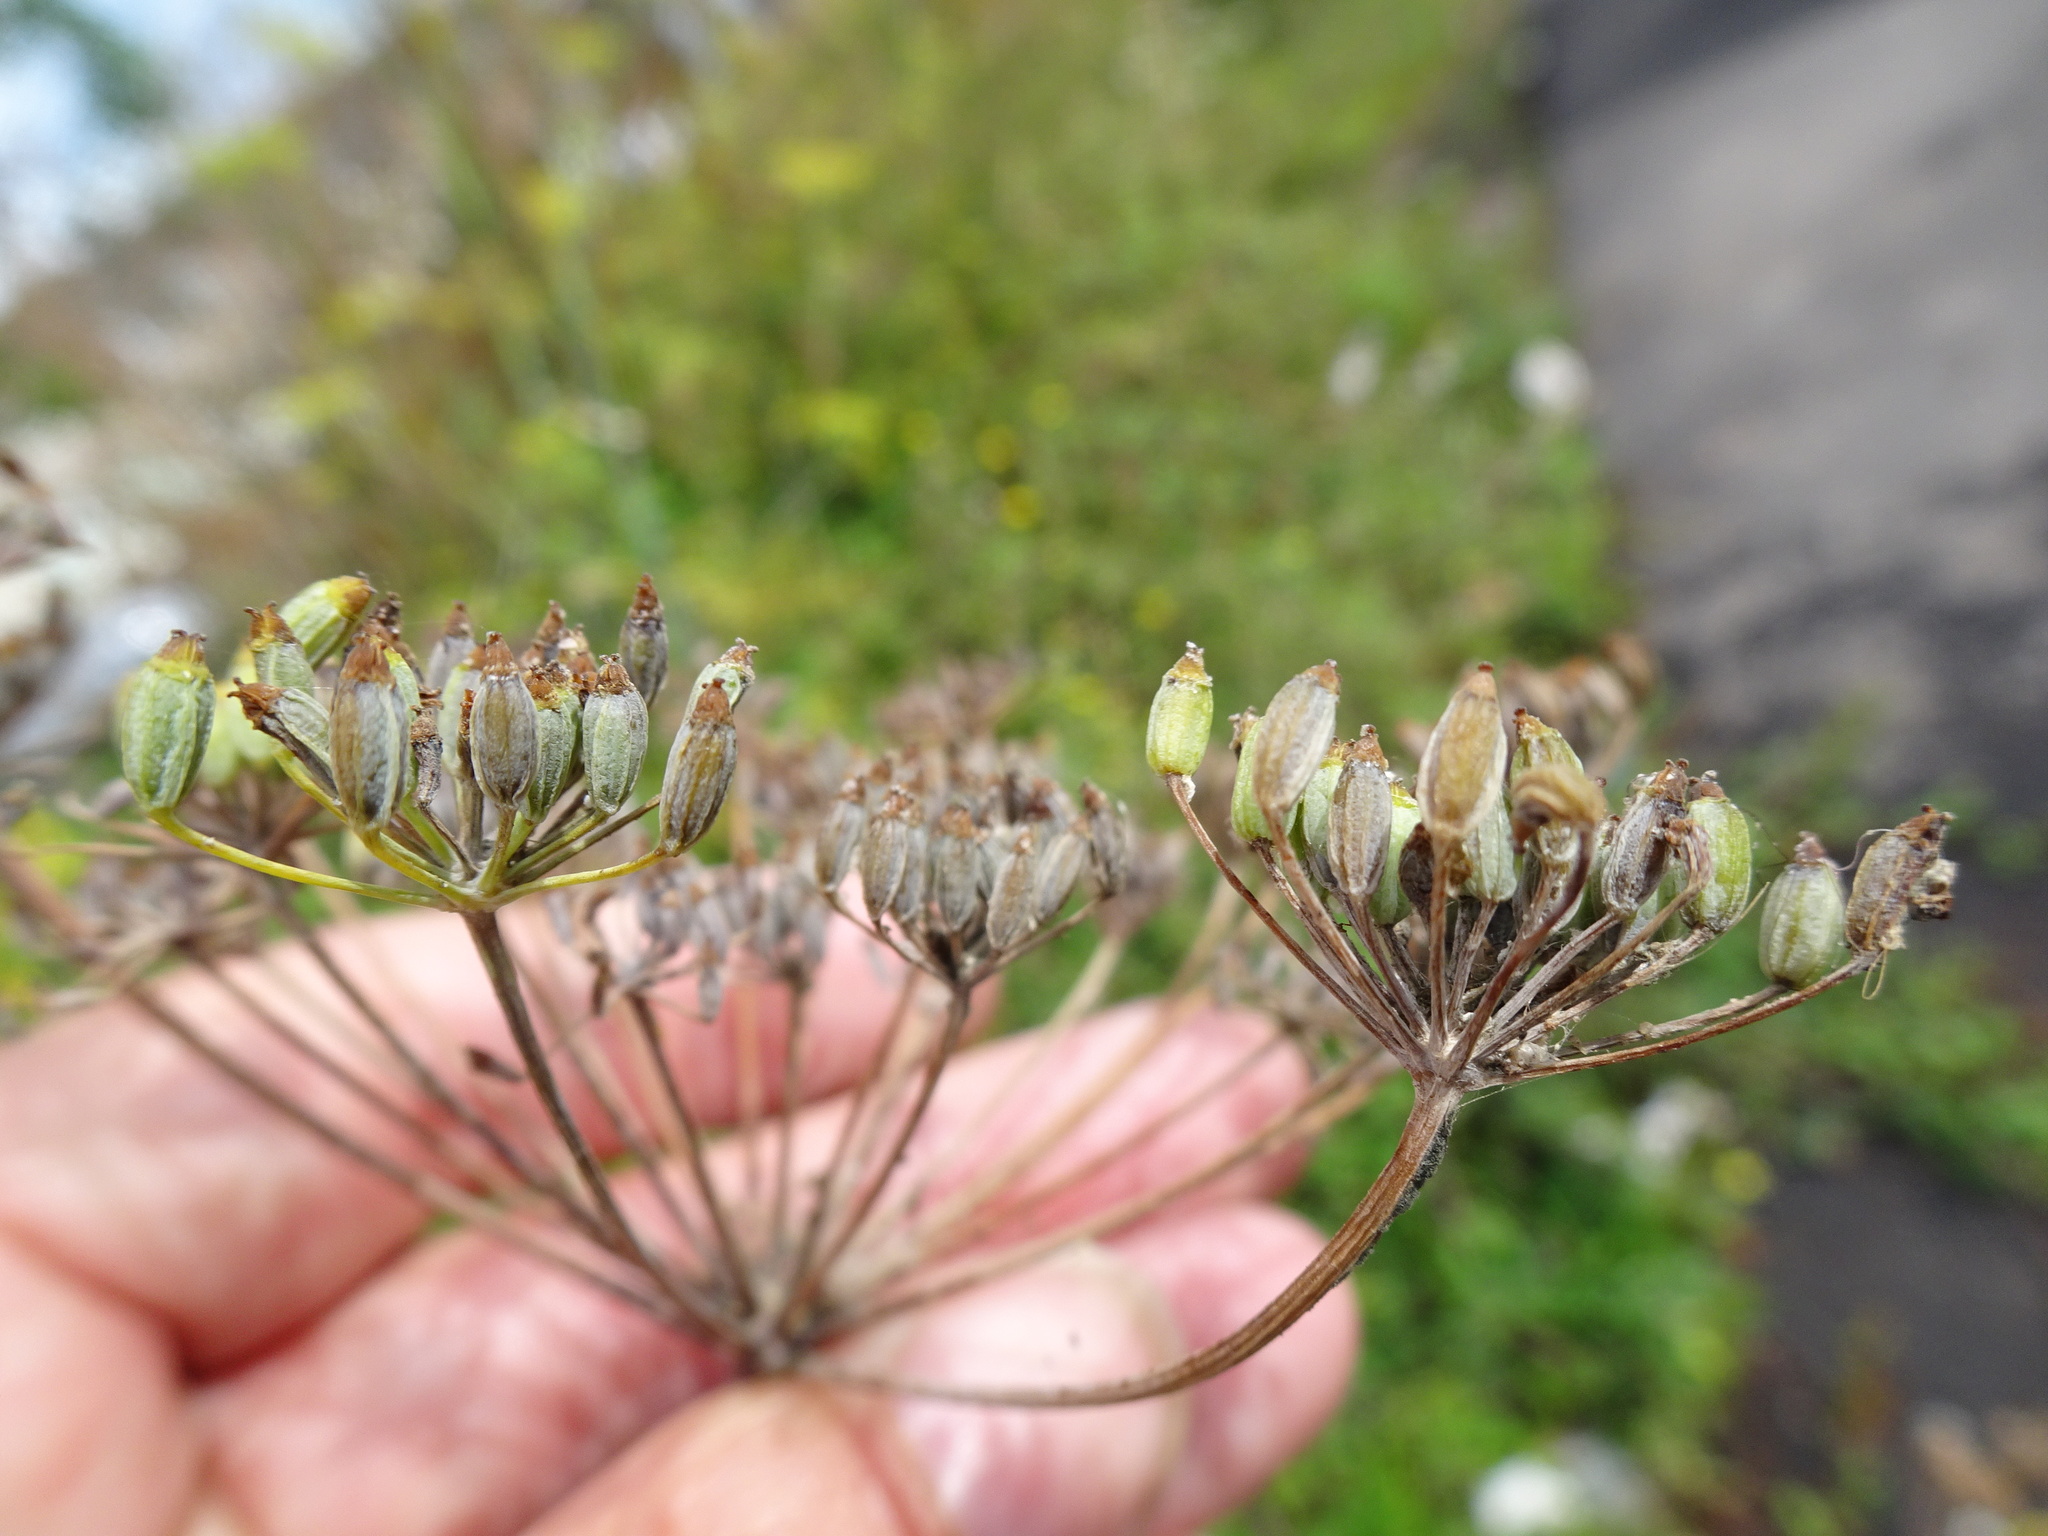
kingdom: Plantae
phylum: Tracheophyta
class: Magnoliopsida
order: Apiales
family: Apiaceae
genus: Foeniculum
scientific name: Foeniculum vulgare
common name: Fennel
